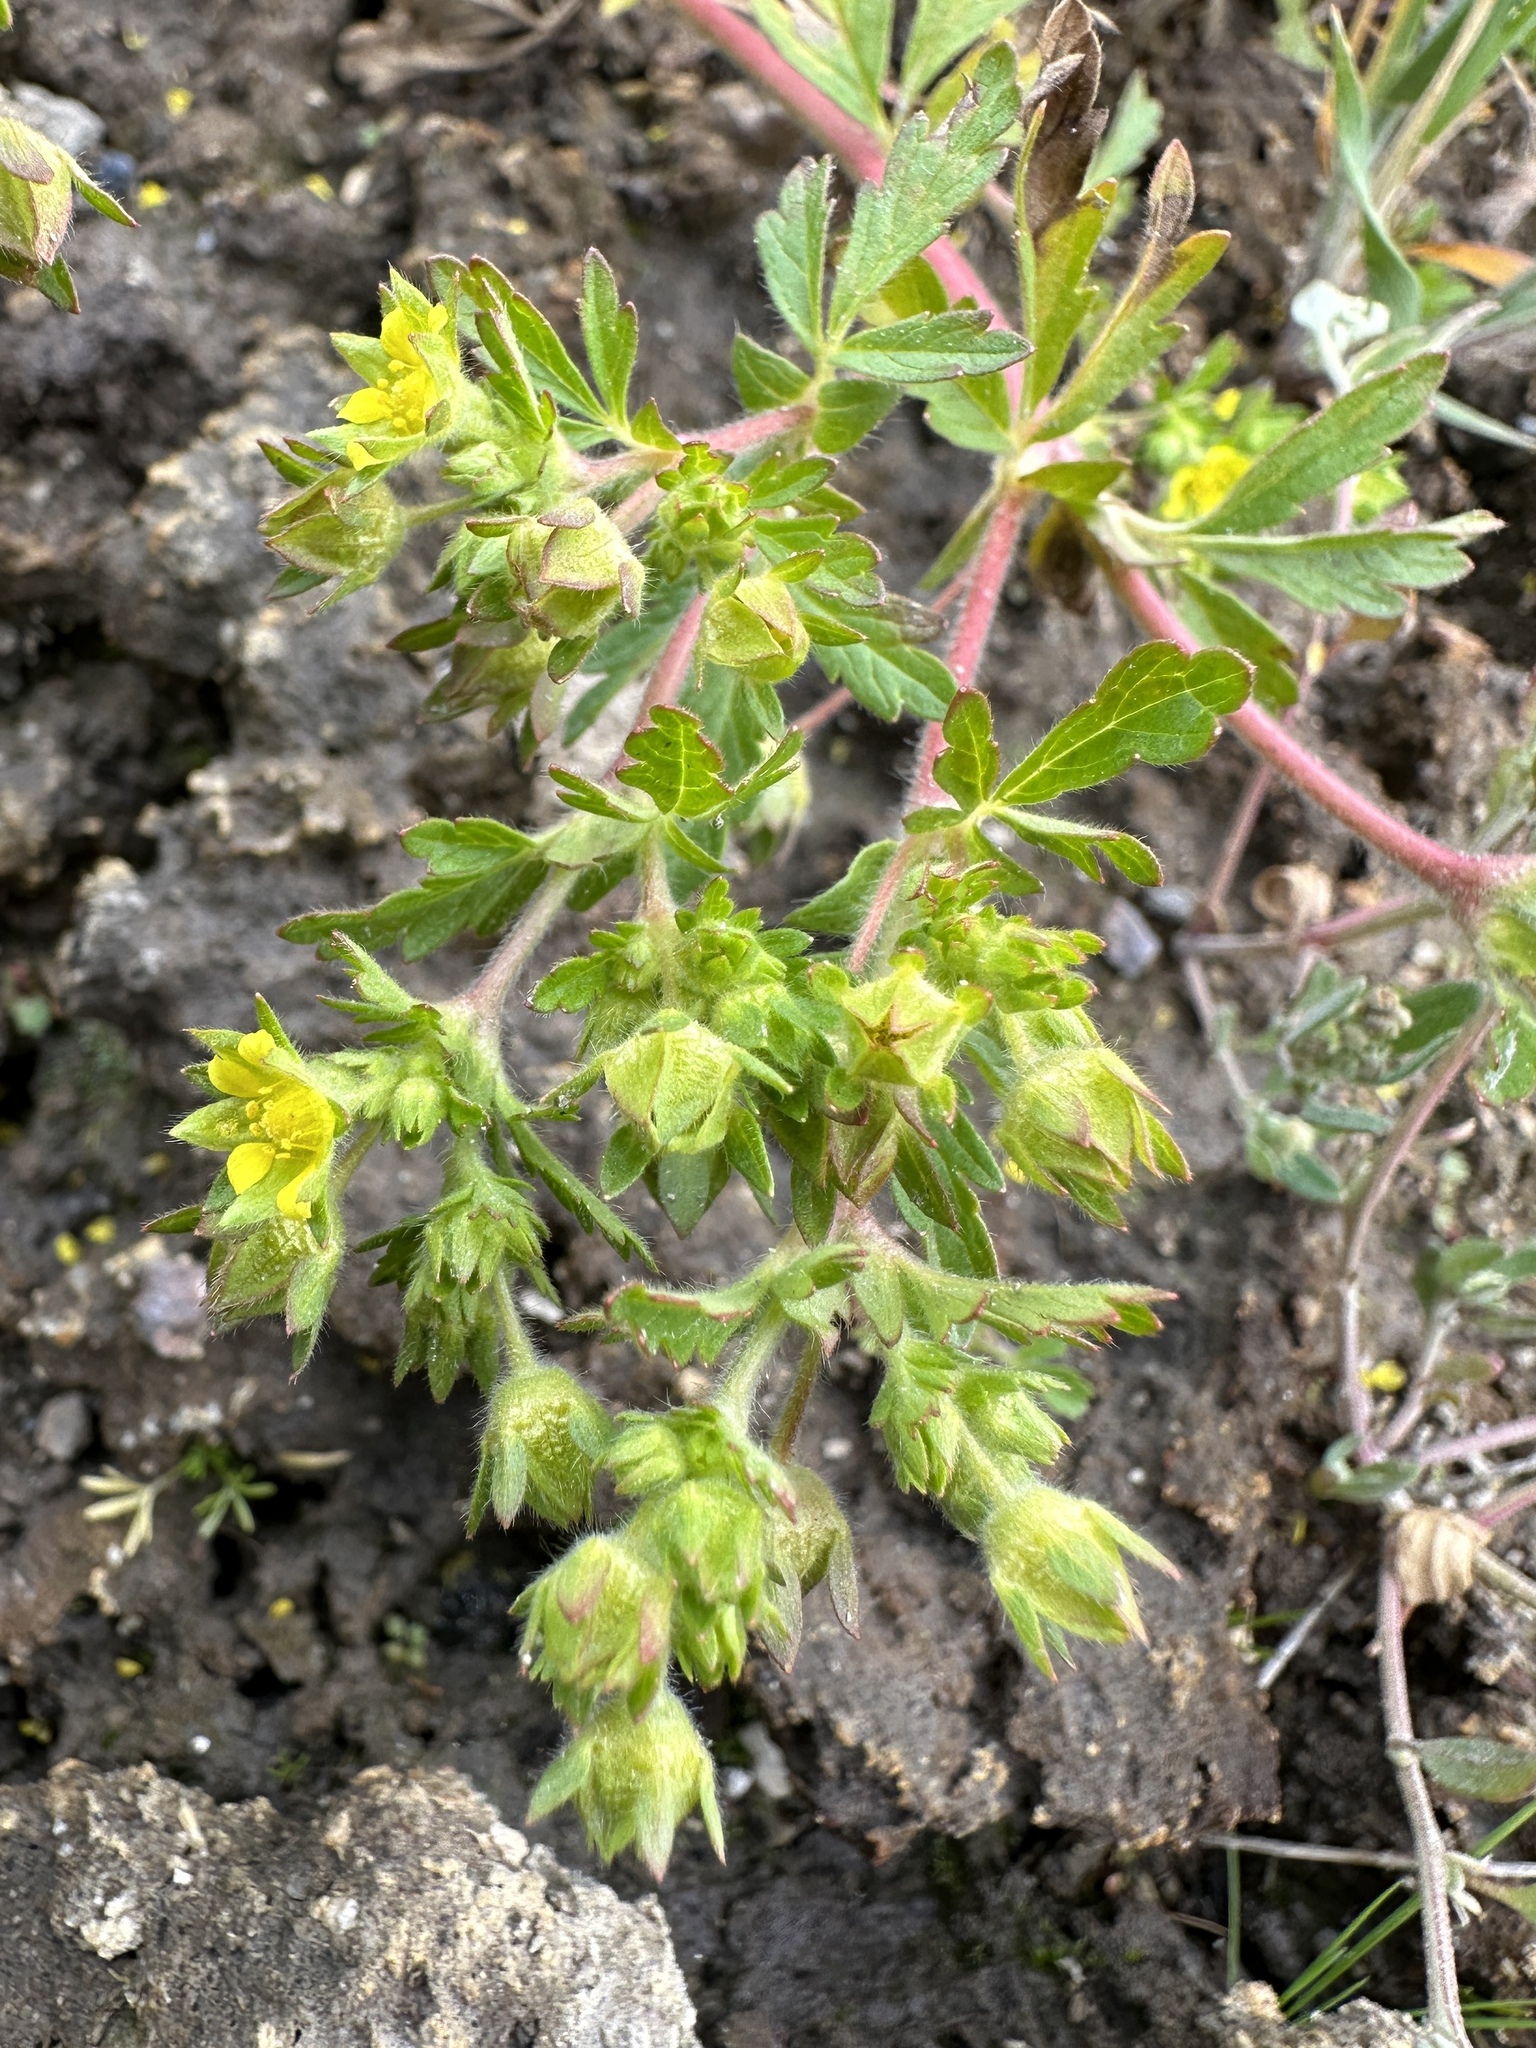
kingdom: Plantae
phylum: Tracheophyta
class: Magnoliopsida
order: Rosales
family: Rosaceae
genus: Potentilla
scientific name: Potentilla supina
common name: Prostrate cinquefoil
